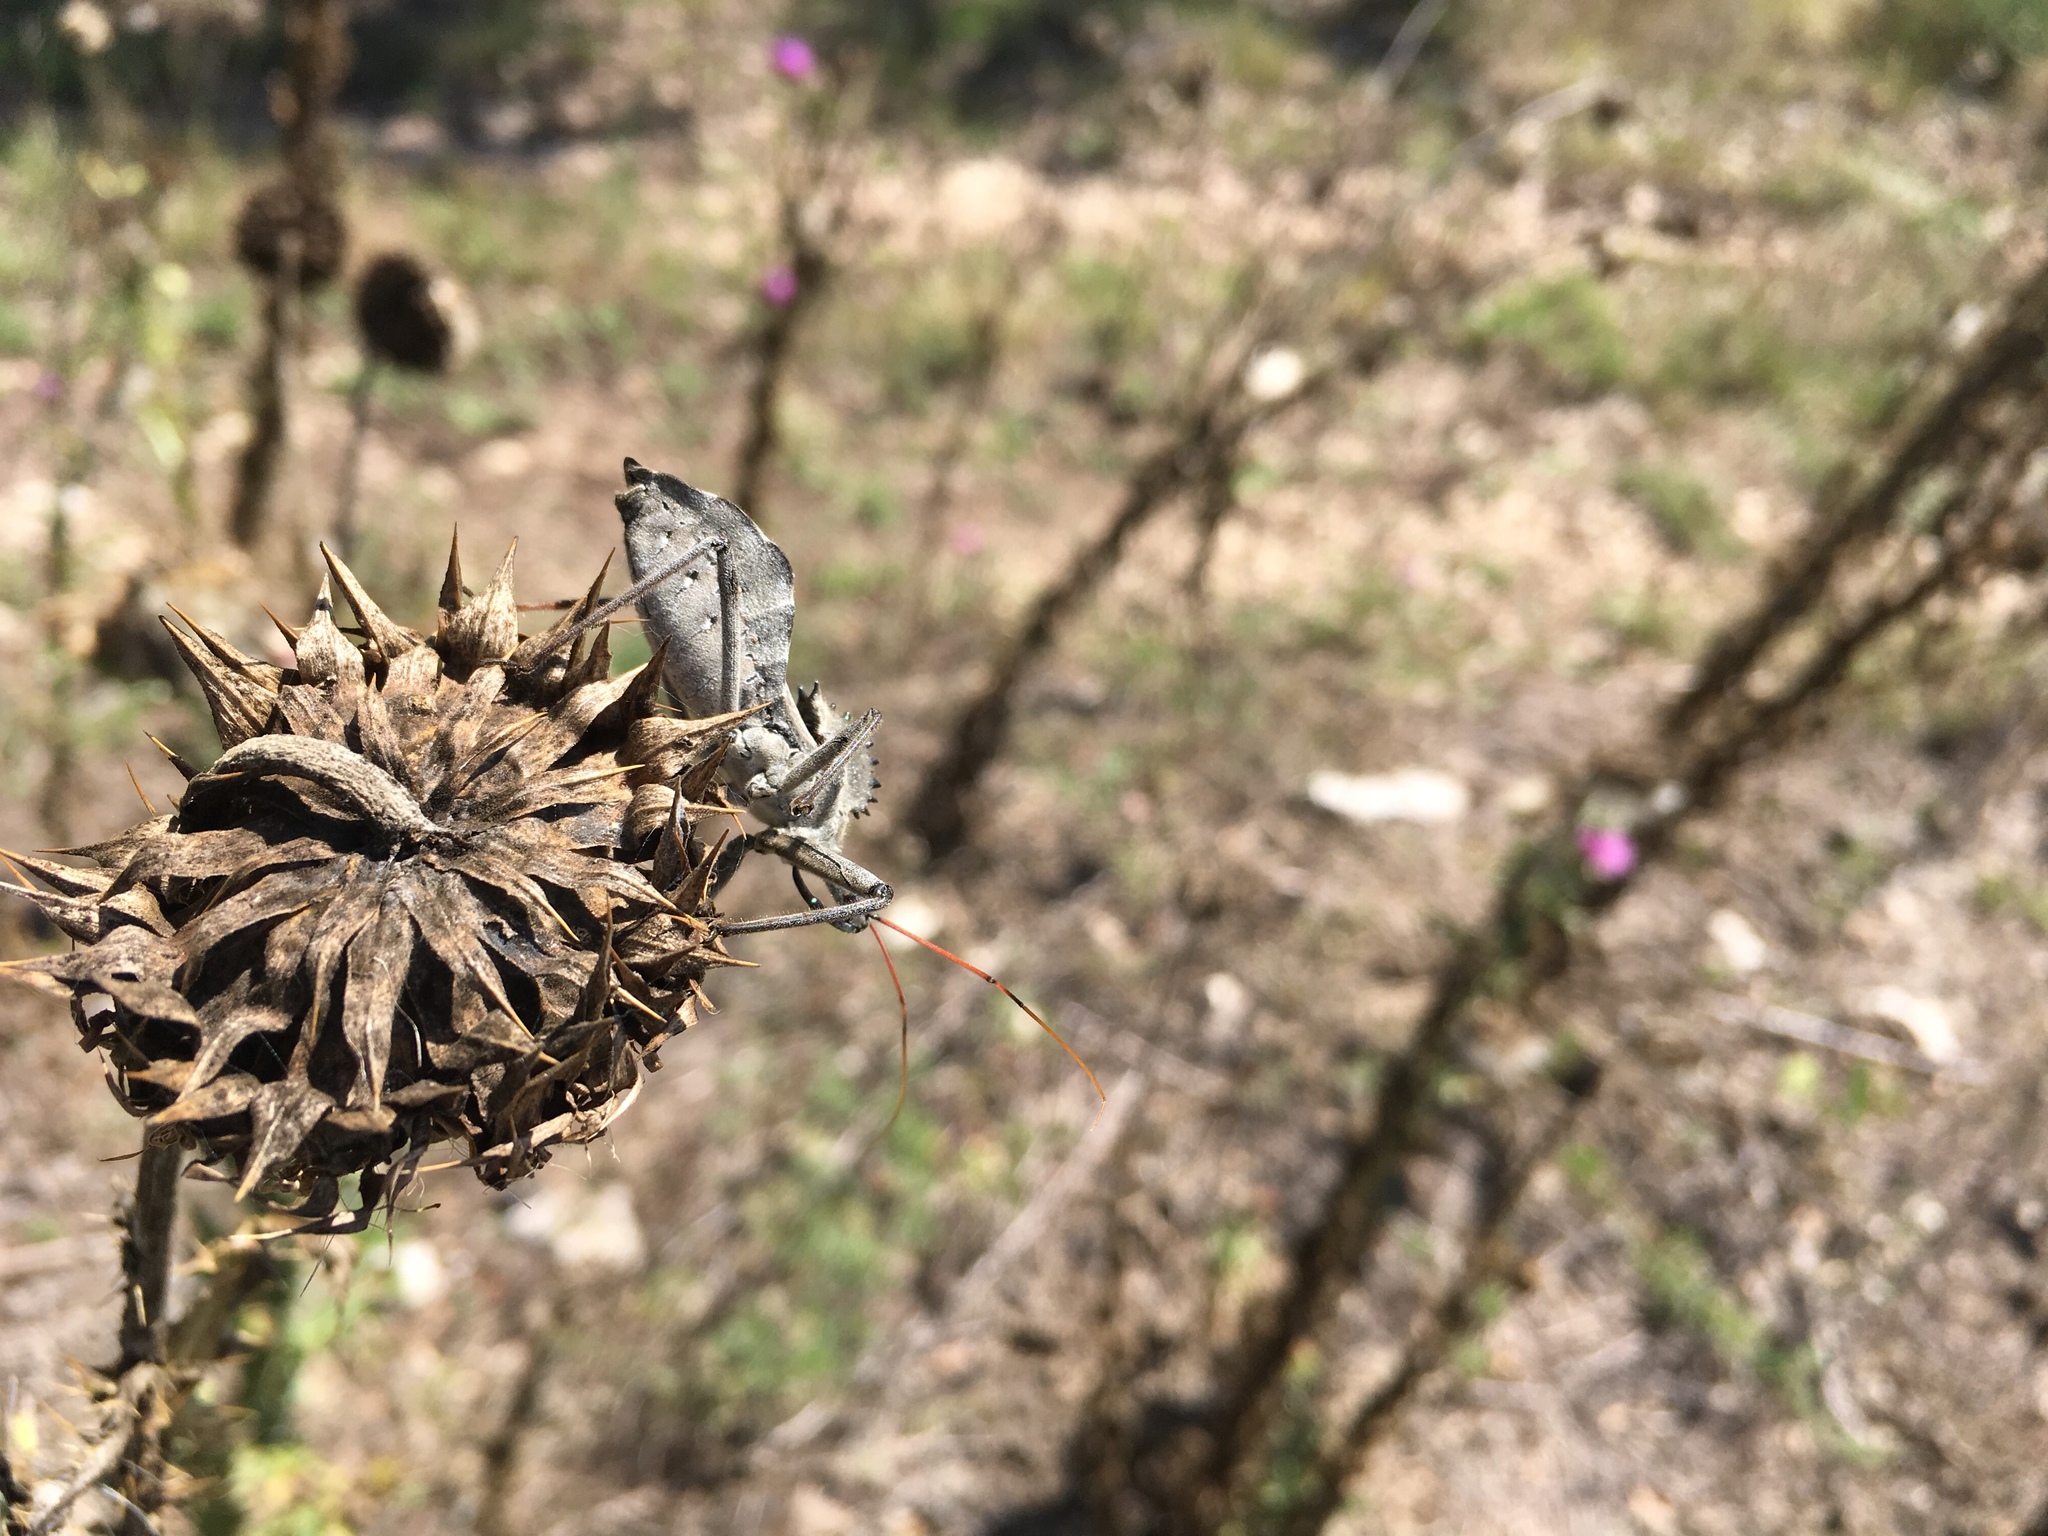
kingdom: Animalia
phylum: Arthropoda
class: Insecta
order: Hemiptera
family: Reduviidae
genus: Arilus
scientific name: Arilus cristatus
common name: North american wheel bug
